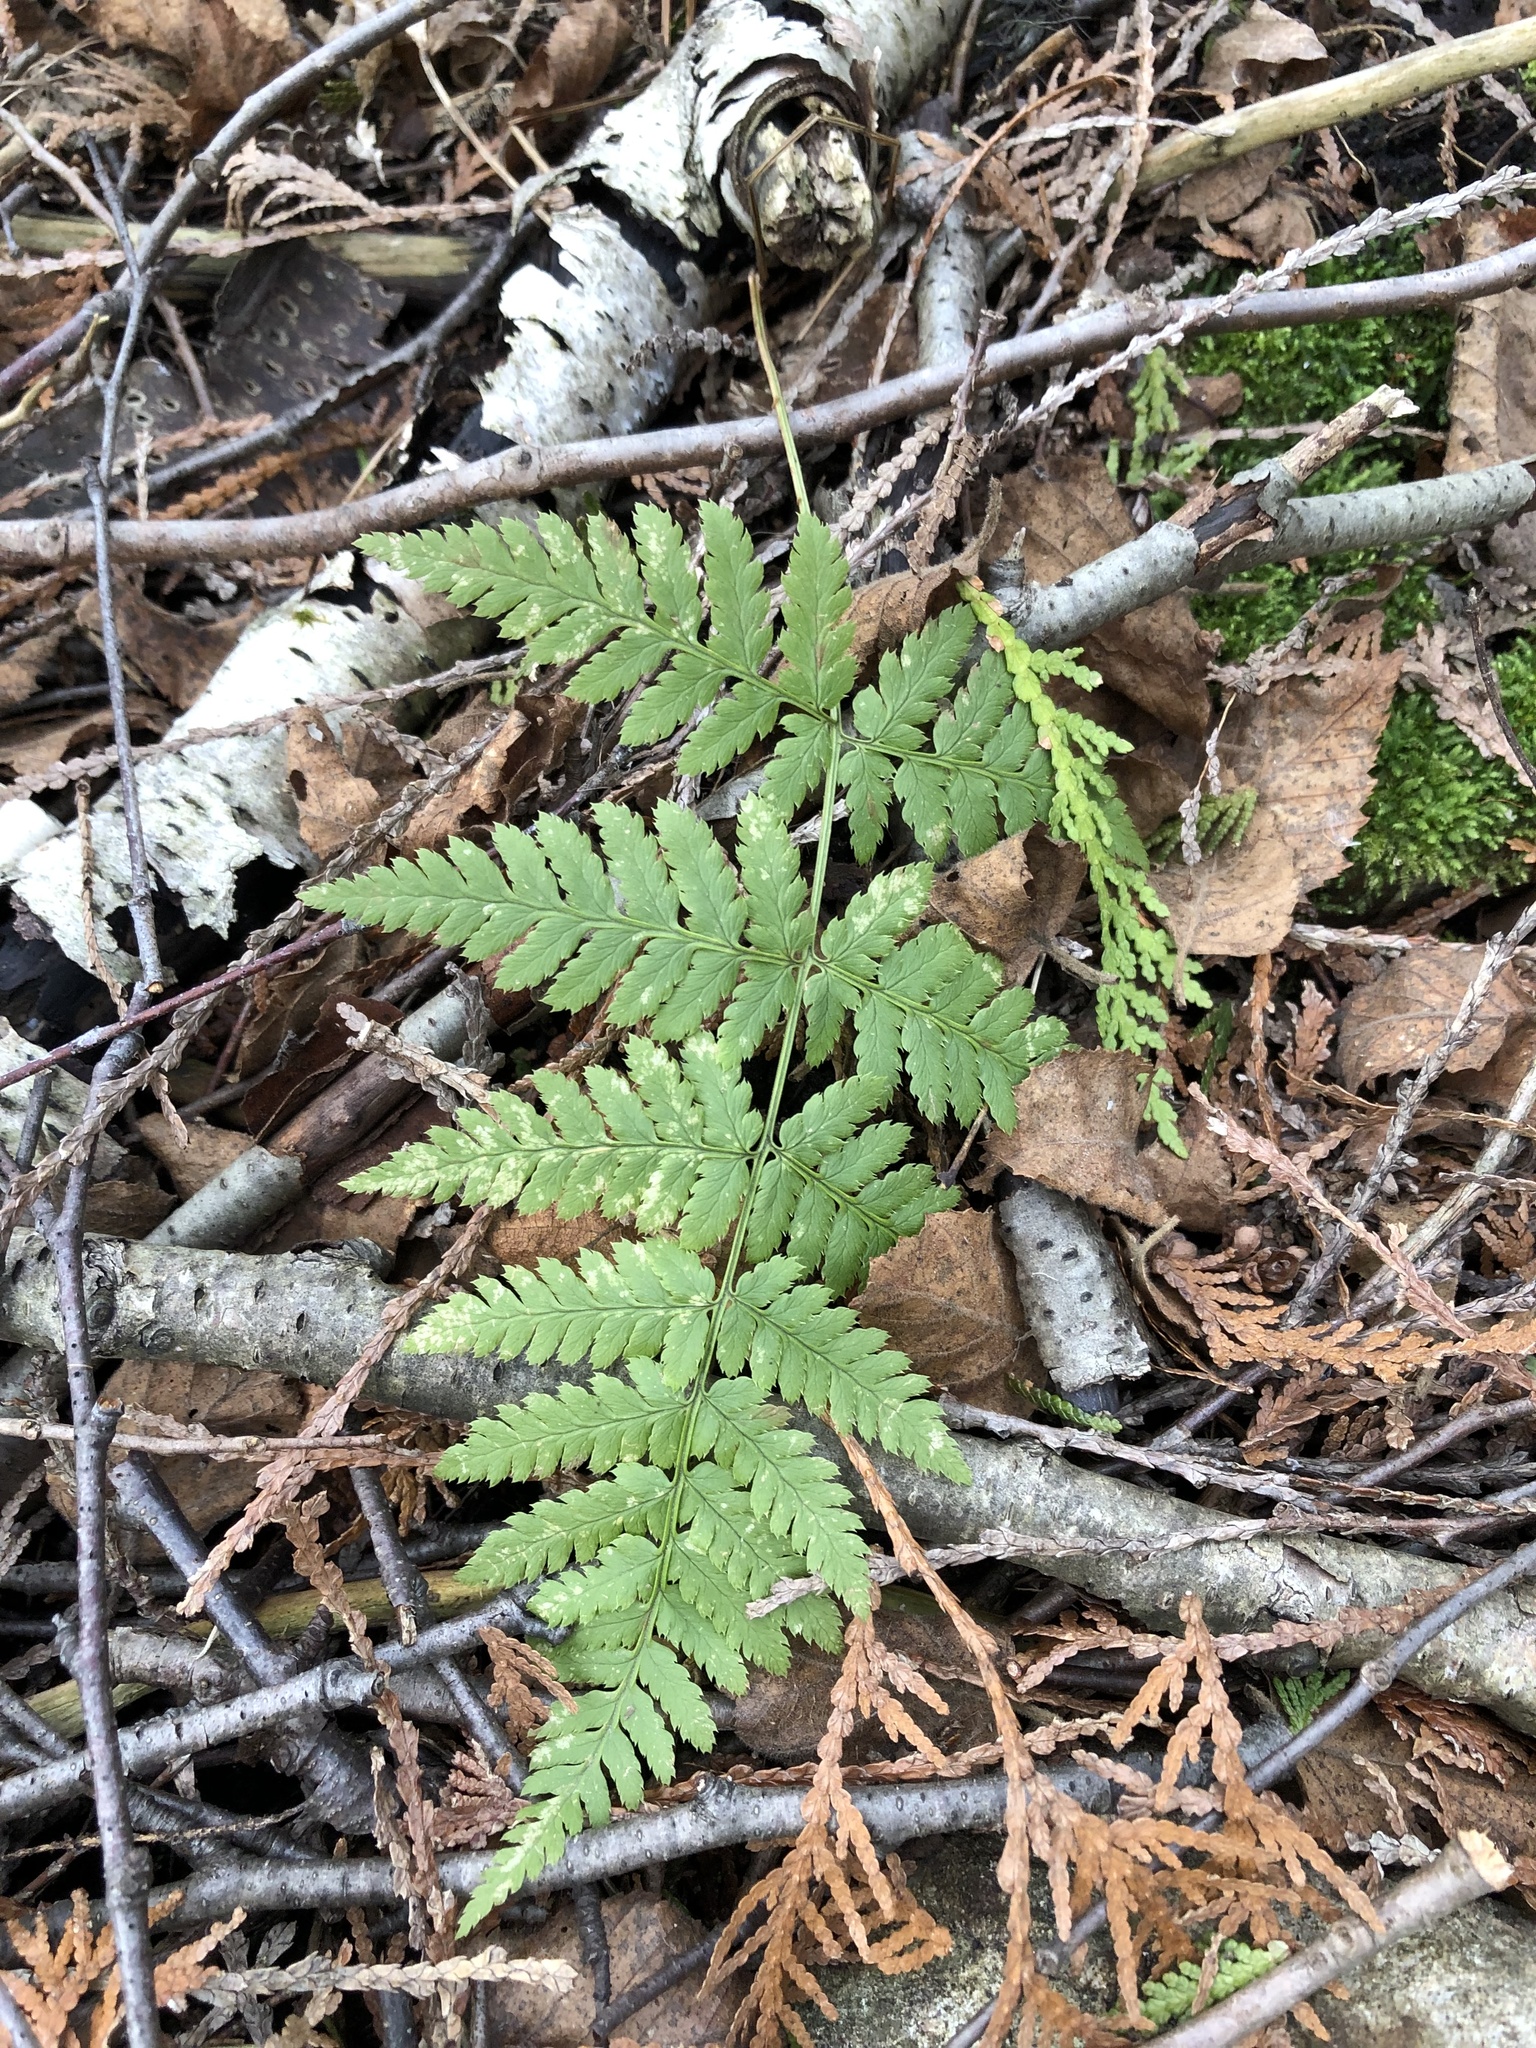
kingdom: Plantae
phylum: Tracheophyta
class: Polypodiopsida
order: Polypodiales
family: Dryopteridaceae
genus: Dryopteris
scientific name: Dryopteris carthusiana
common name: Narrow buckler-fern
